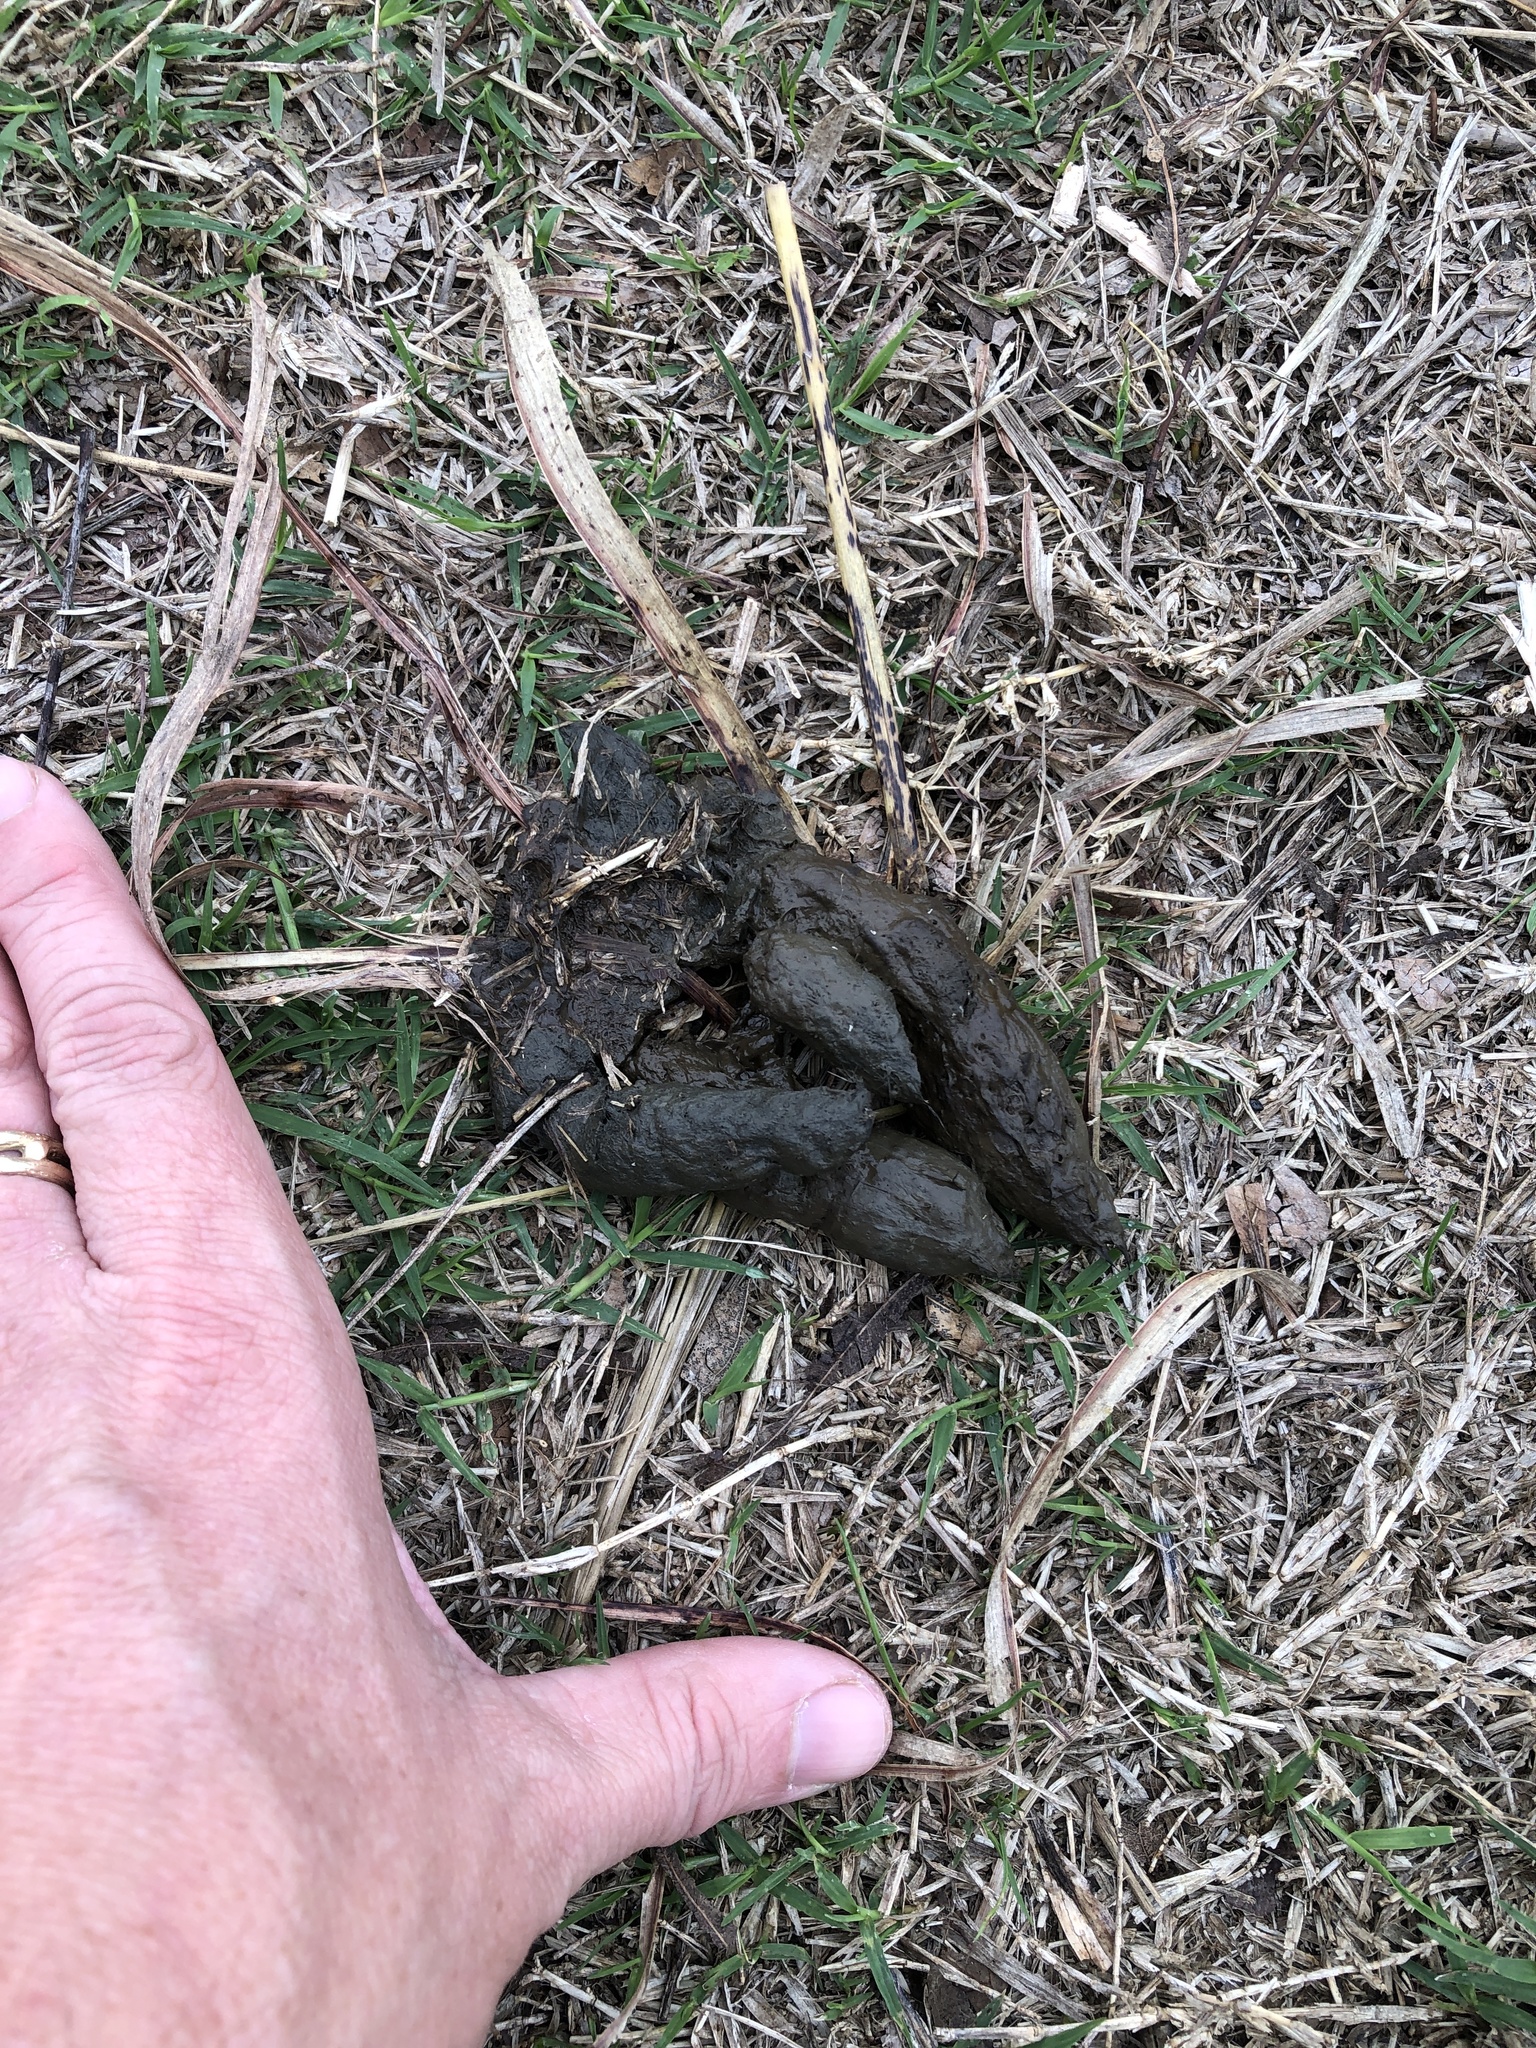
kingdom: Animalia
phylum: Chordata
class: Mammalia
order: Carnivora
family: Canidae
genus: Canis
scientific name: Canis latrans
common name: Coyote
